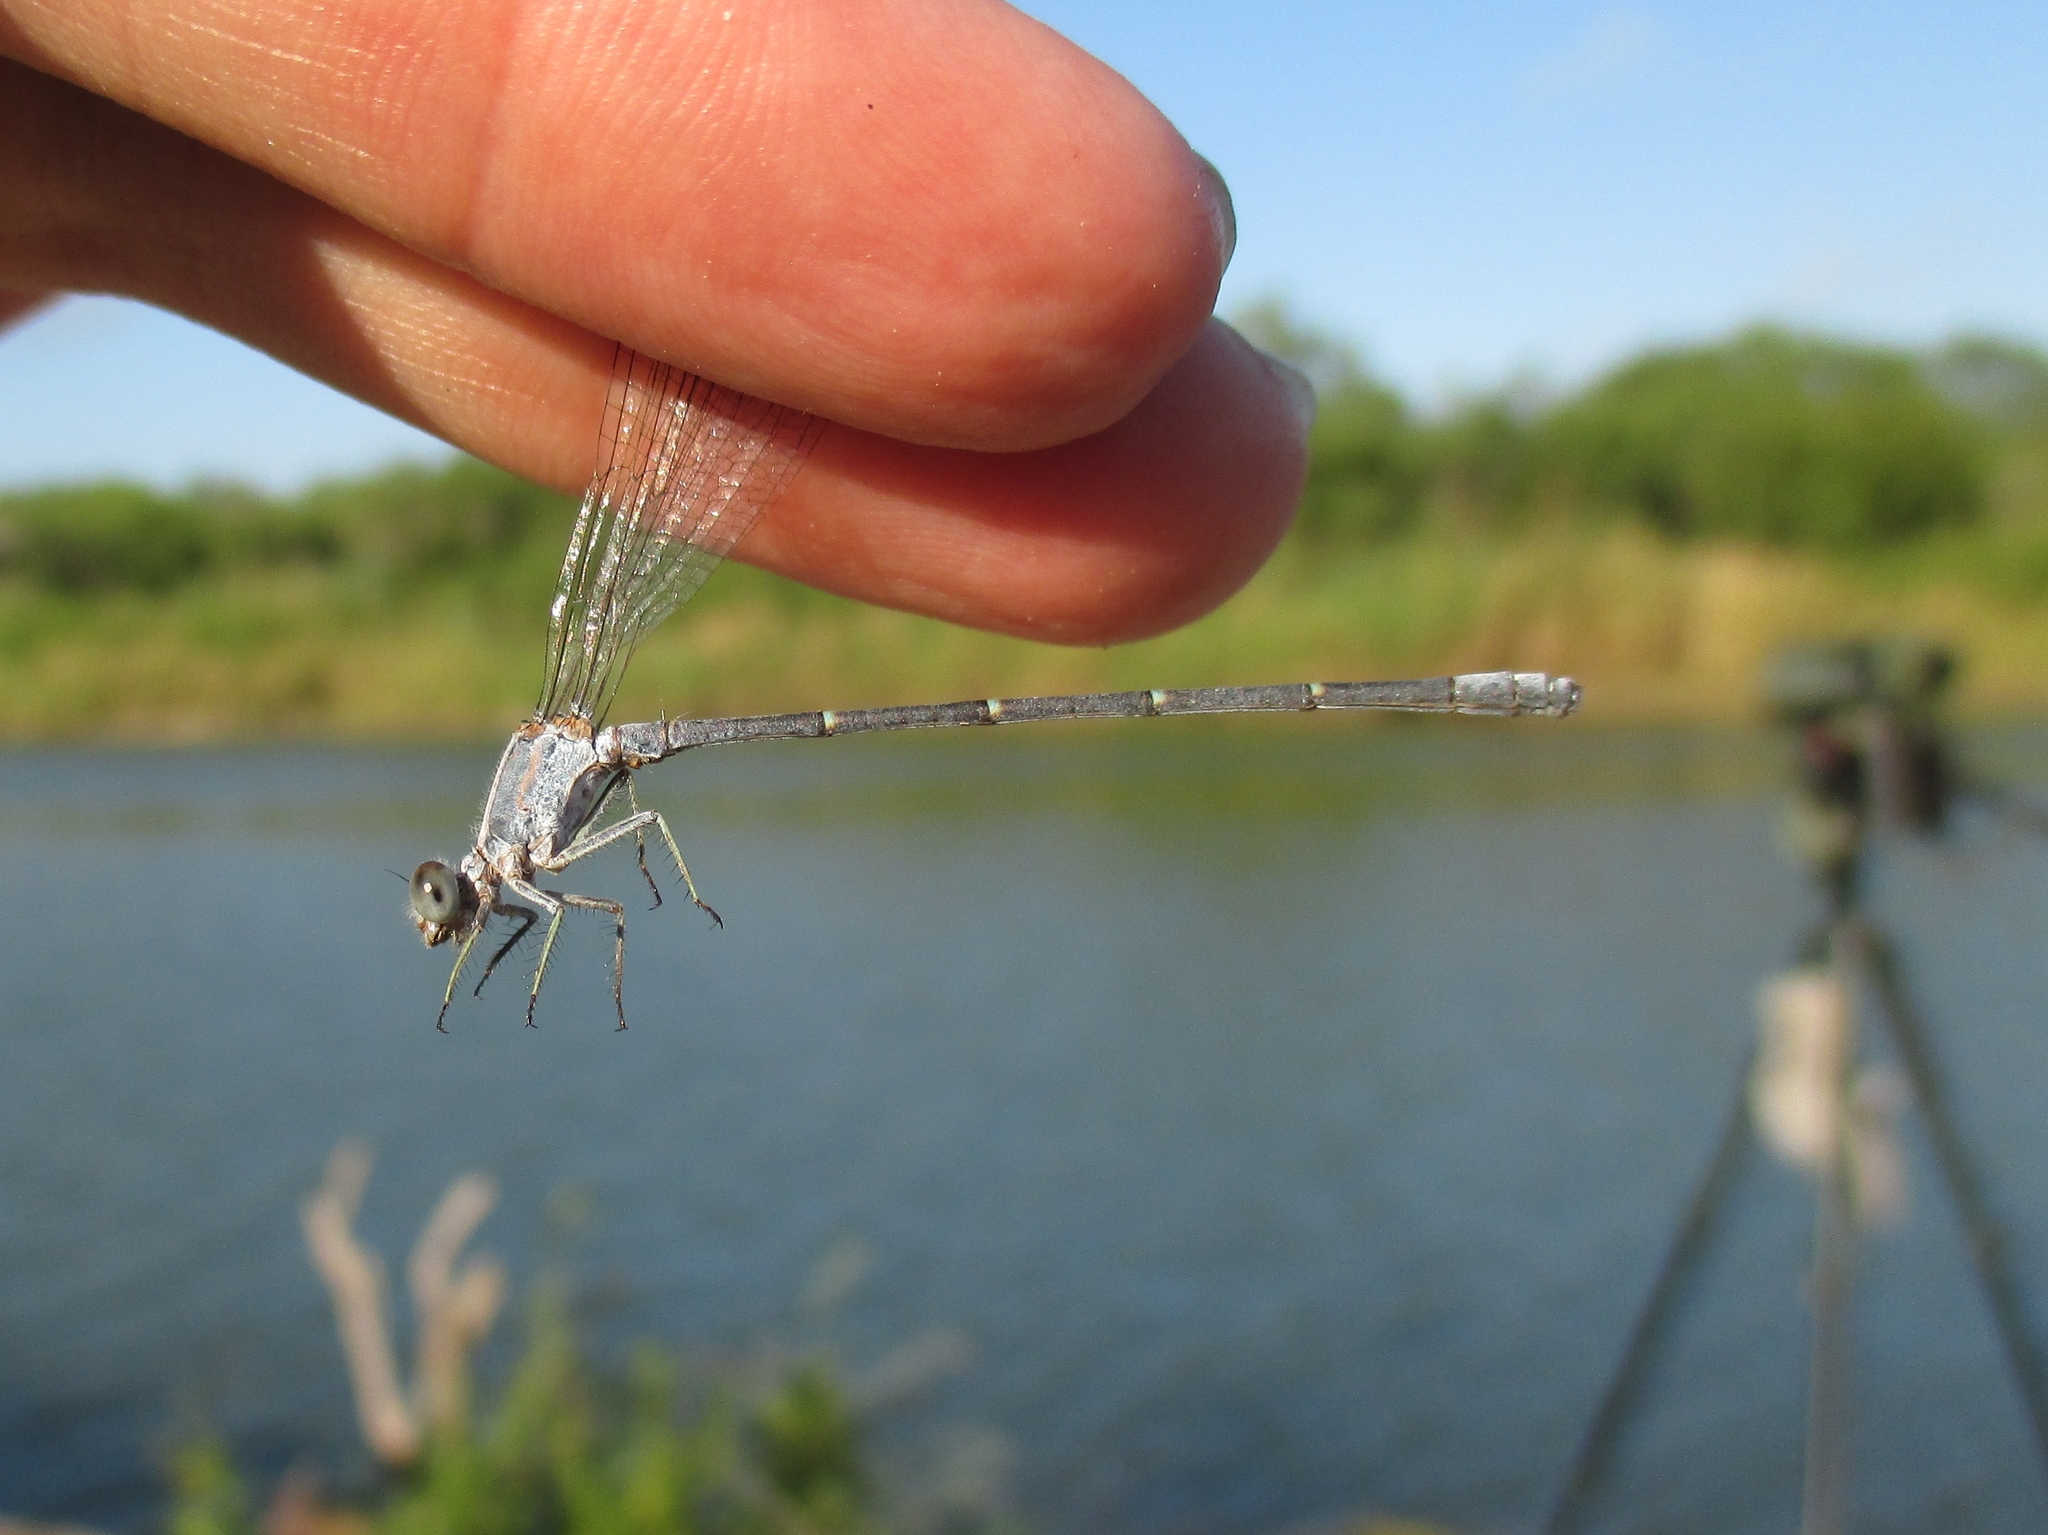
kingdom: Animalia
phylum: Arthropoda
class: Insecta
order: Odonata
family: Coenagrionidae
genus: Argia
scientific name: Argia moesta
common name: Powdered dancer
